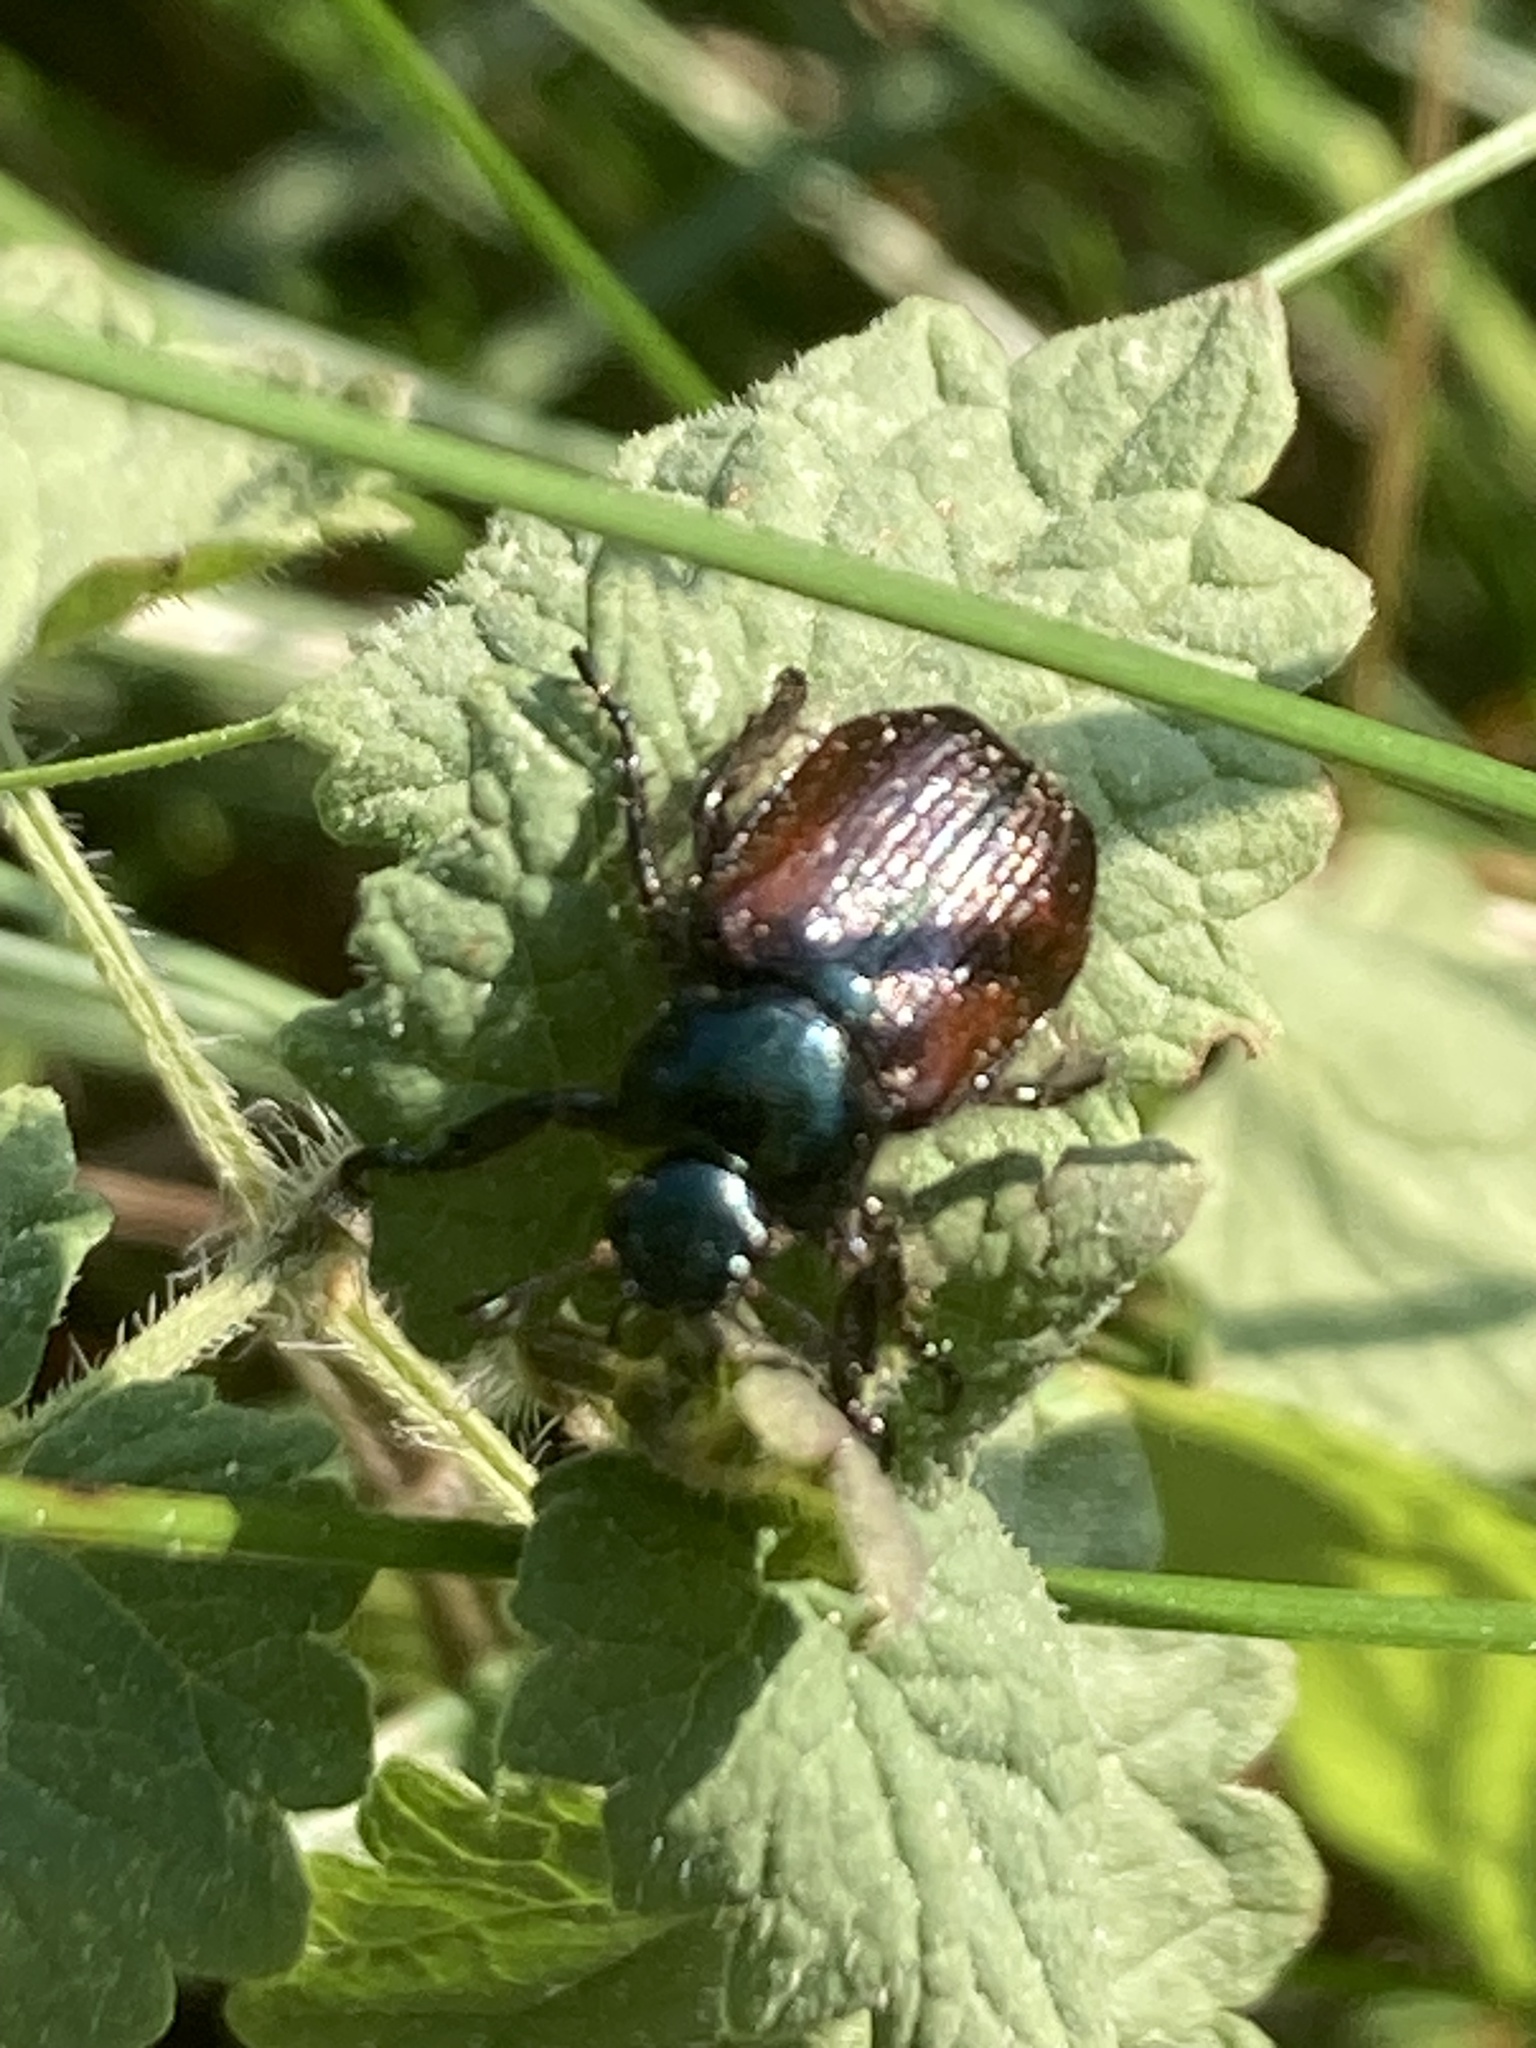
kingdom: Animalia
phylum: Arthropoda
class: Insecta
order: Coleoptera
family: Scarabaeidae
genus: Phyllopertha
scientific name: Phyllopertha horticola
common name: Garden chafer
